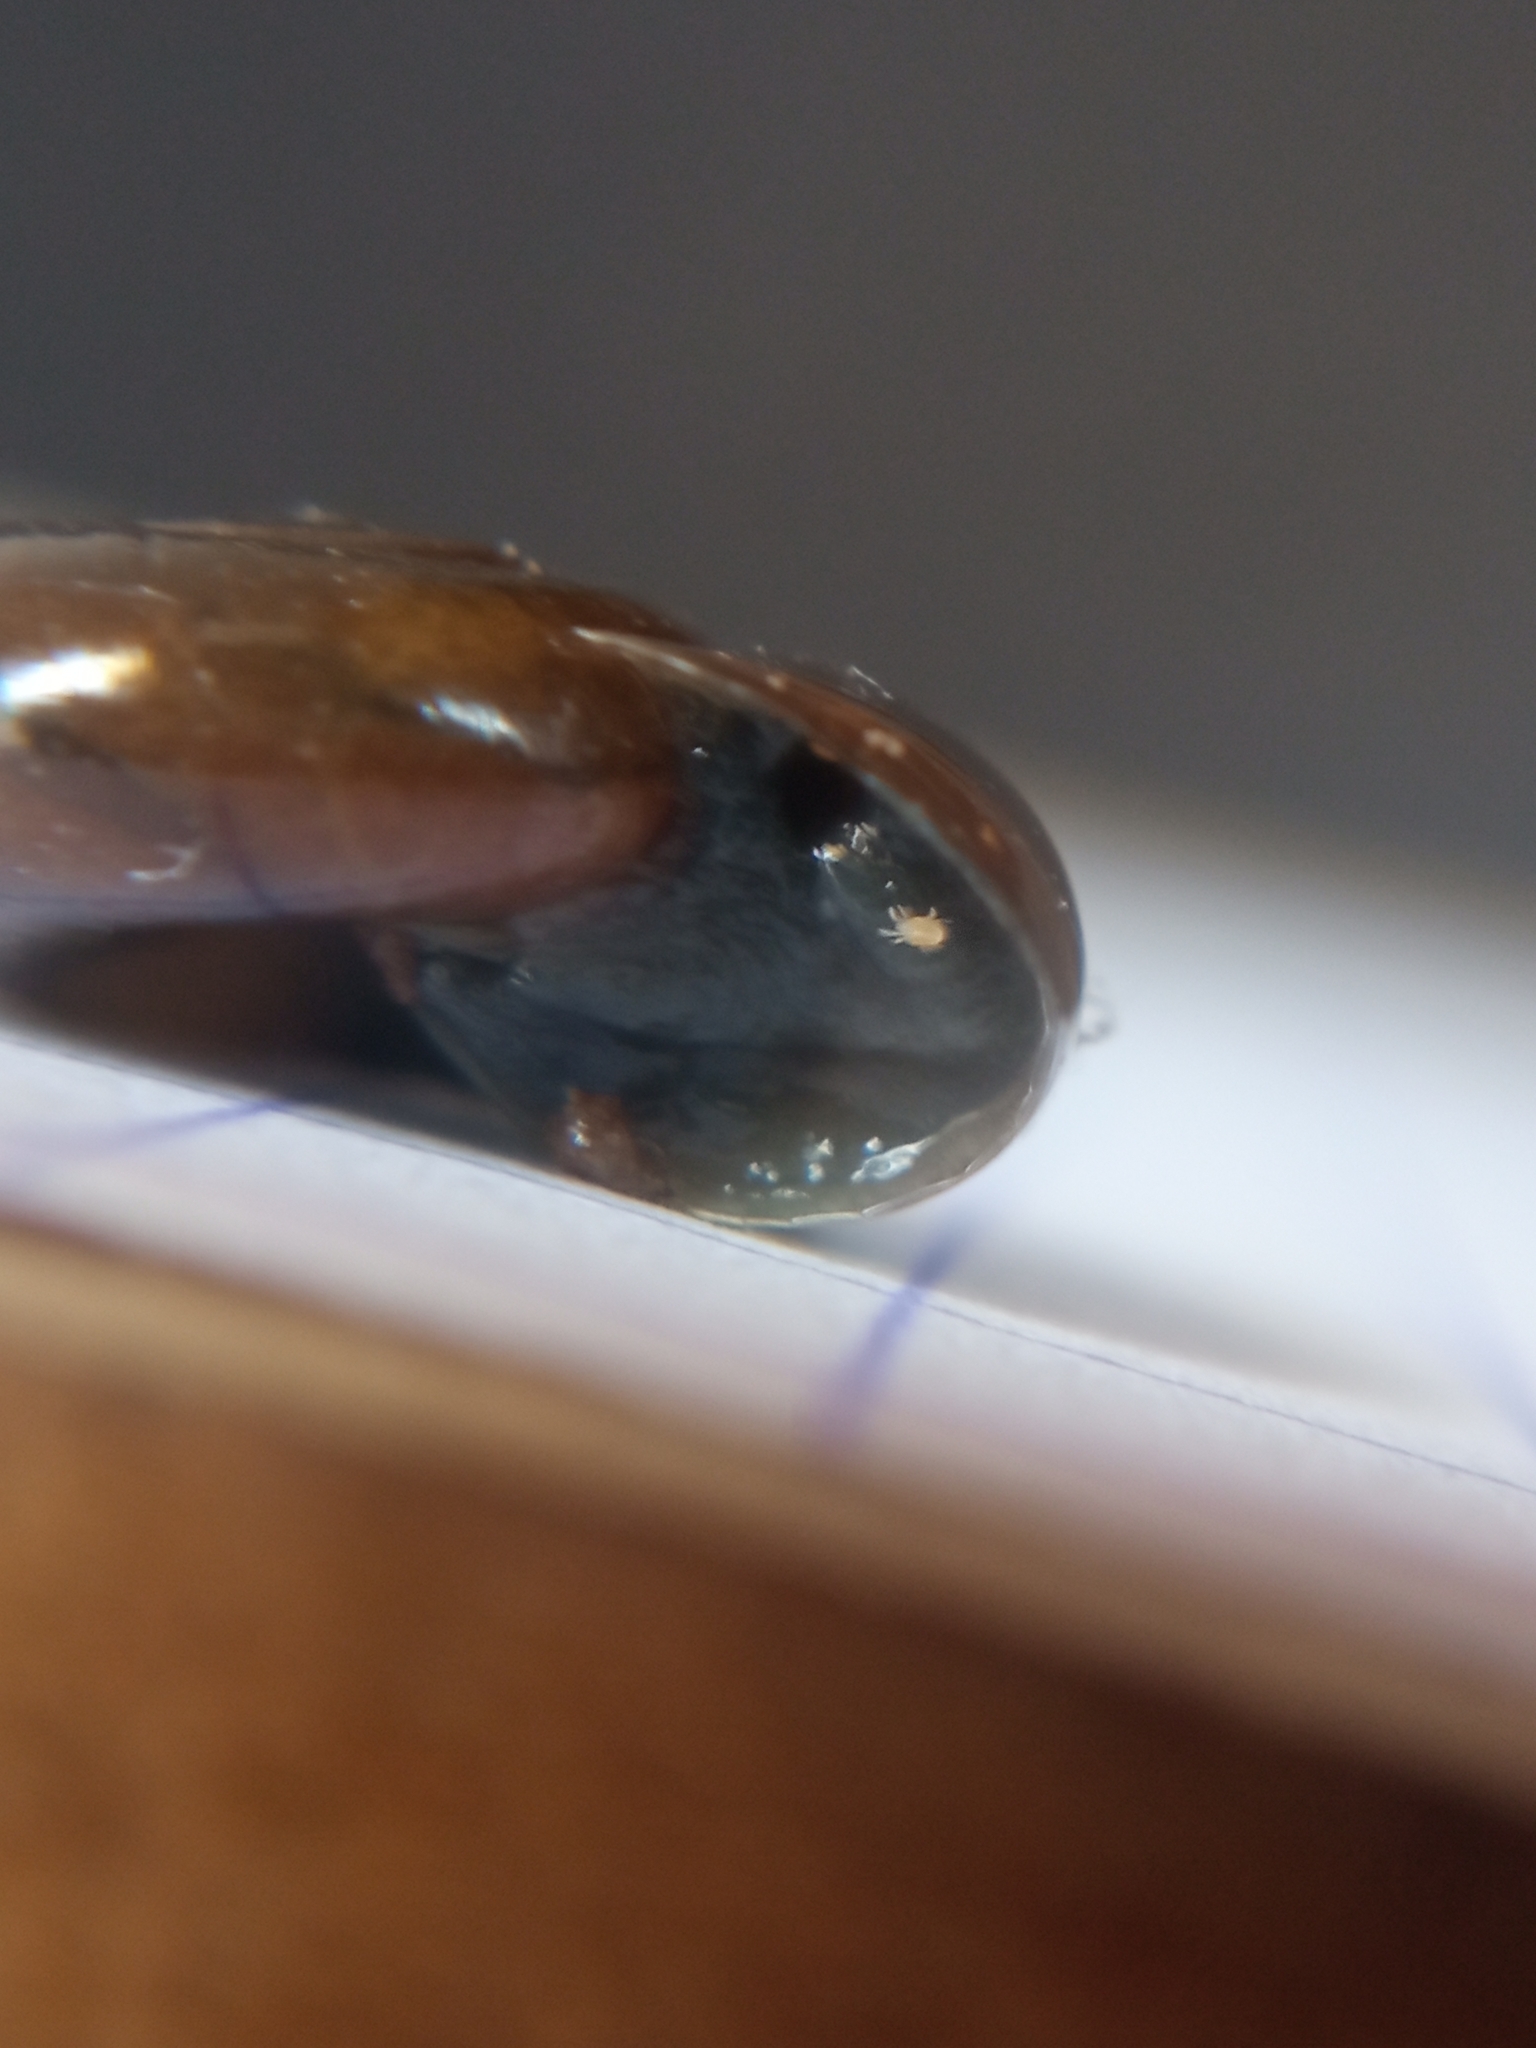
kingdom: Animalia
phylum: Arthropoda
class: Arachnida
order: Trombidiformes
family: Ereynetidae
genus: Riccardoella
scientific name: Riccardoella limacum
